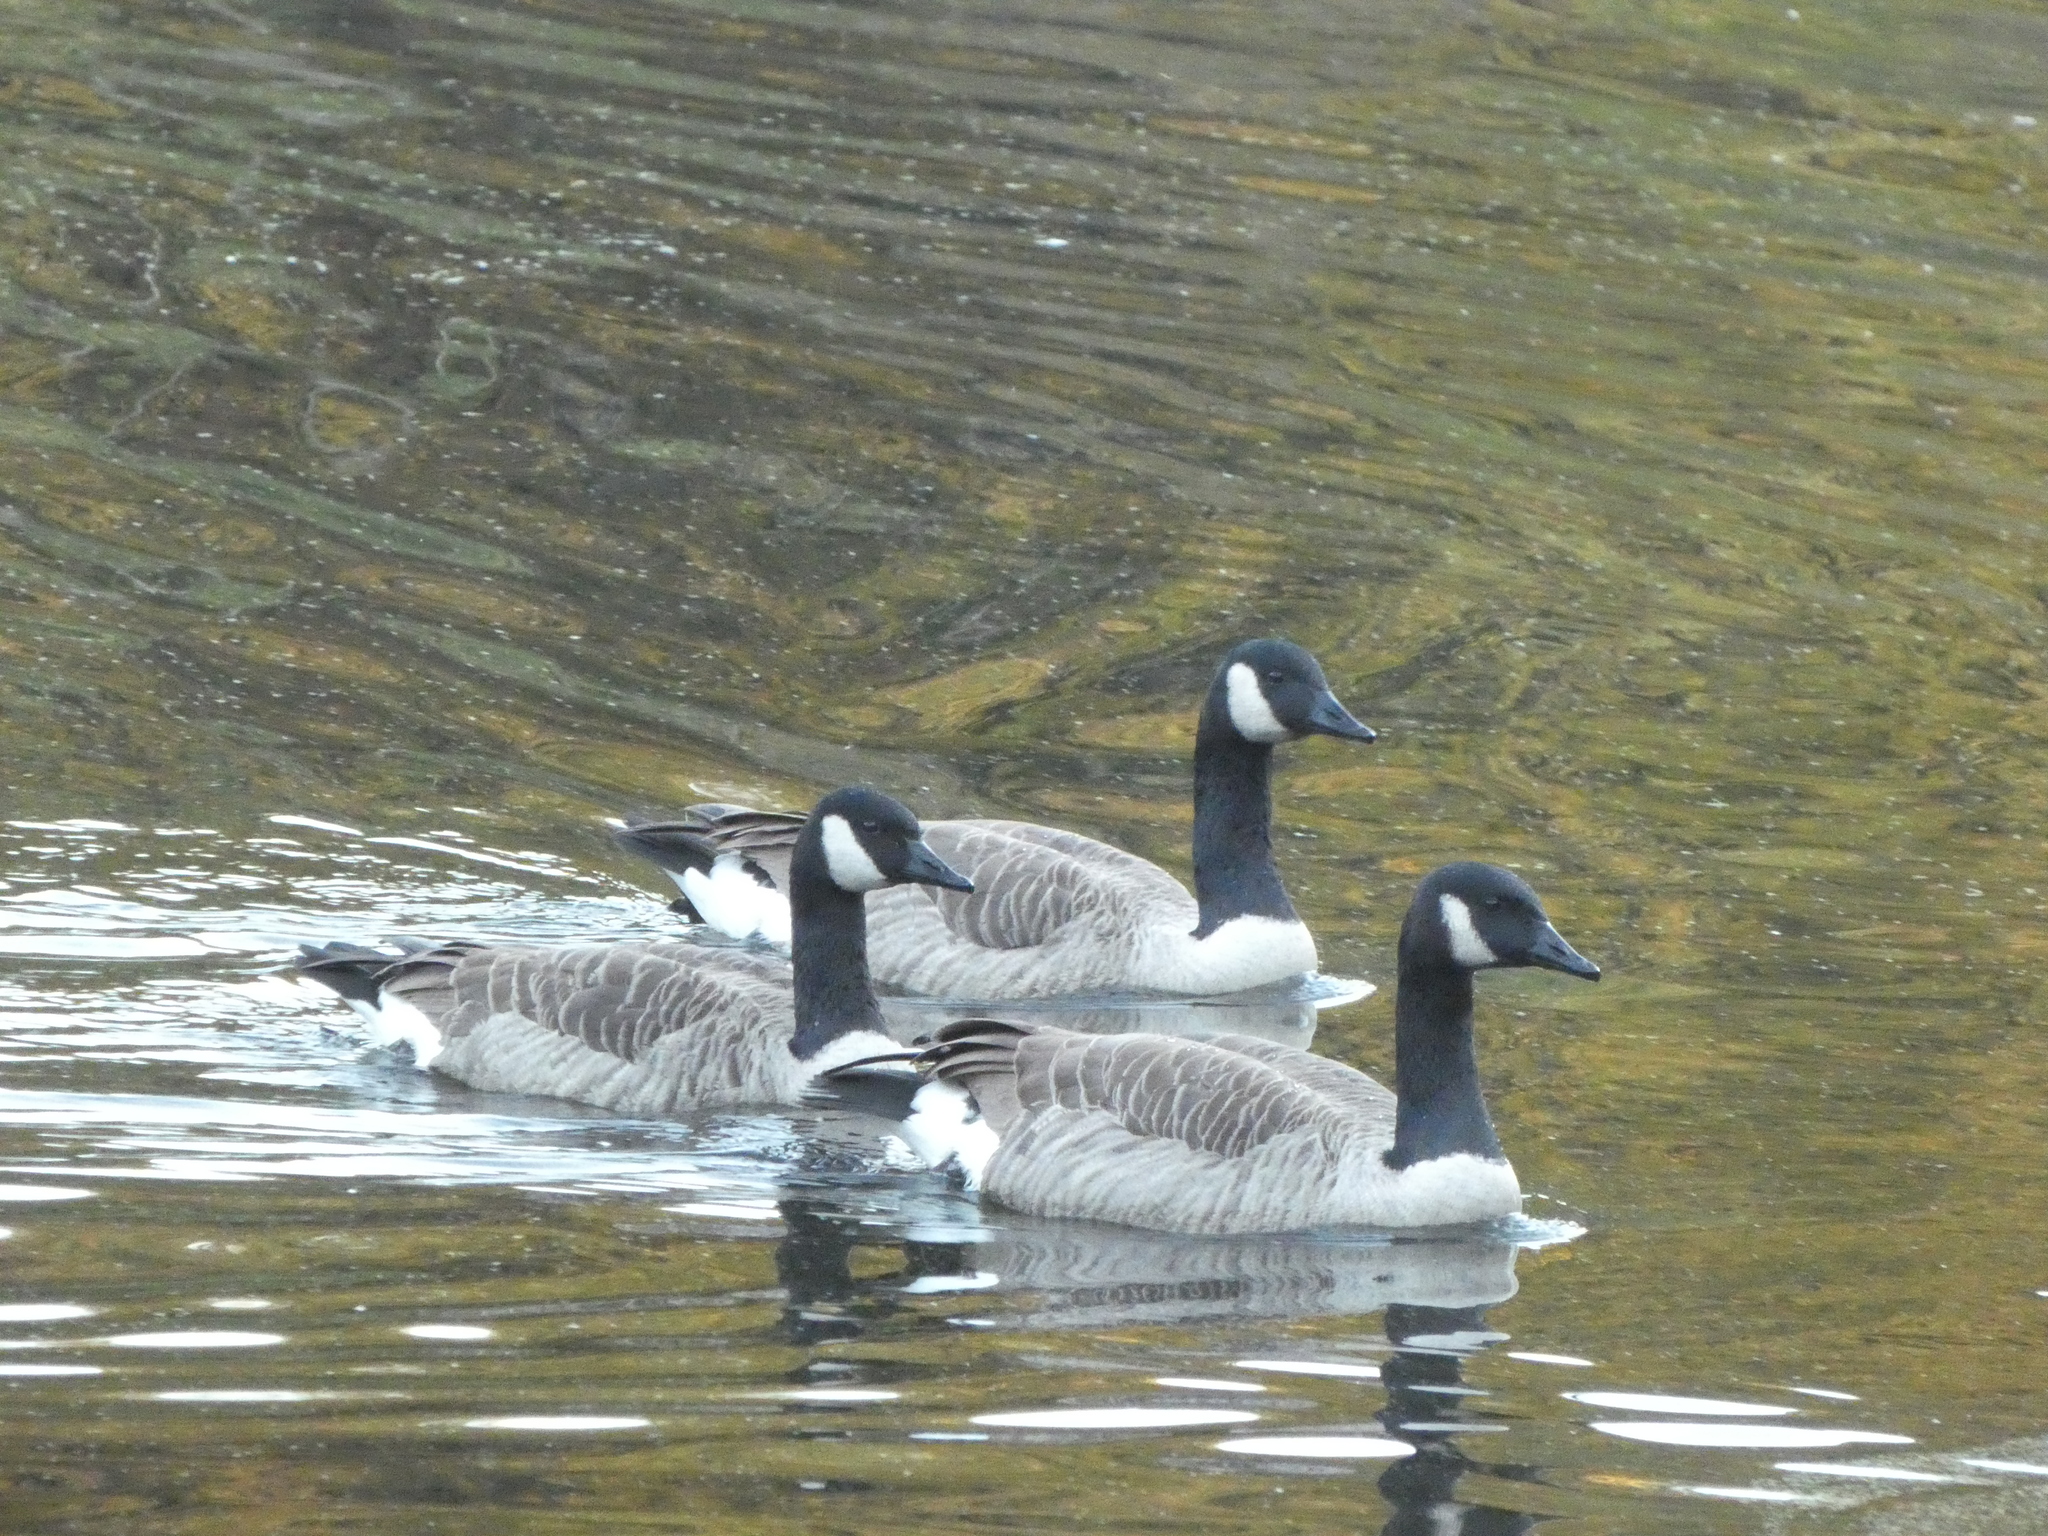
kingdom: Animalia
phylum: Chordata
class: Aves
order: Anseriformes
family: Anatidae
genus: Branta
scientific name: Branta canadensis
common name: Canada goose
